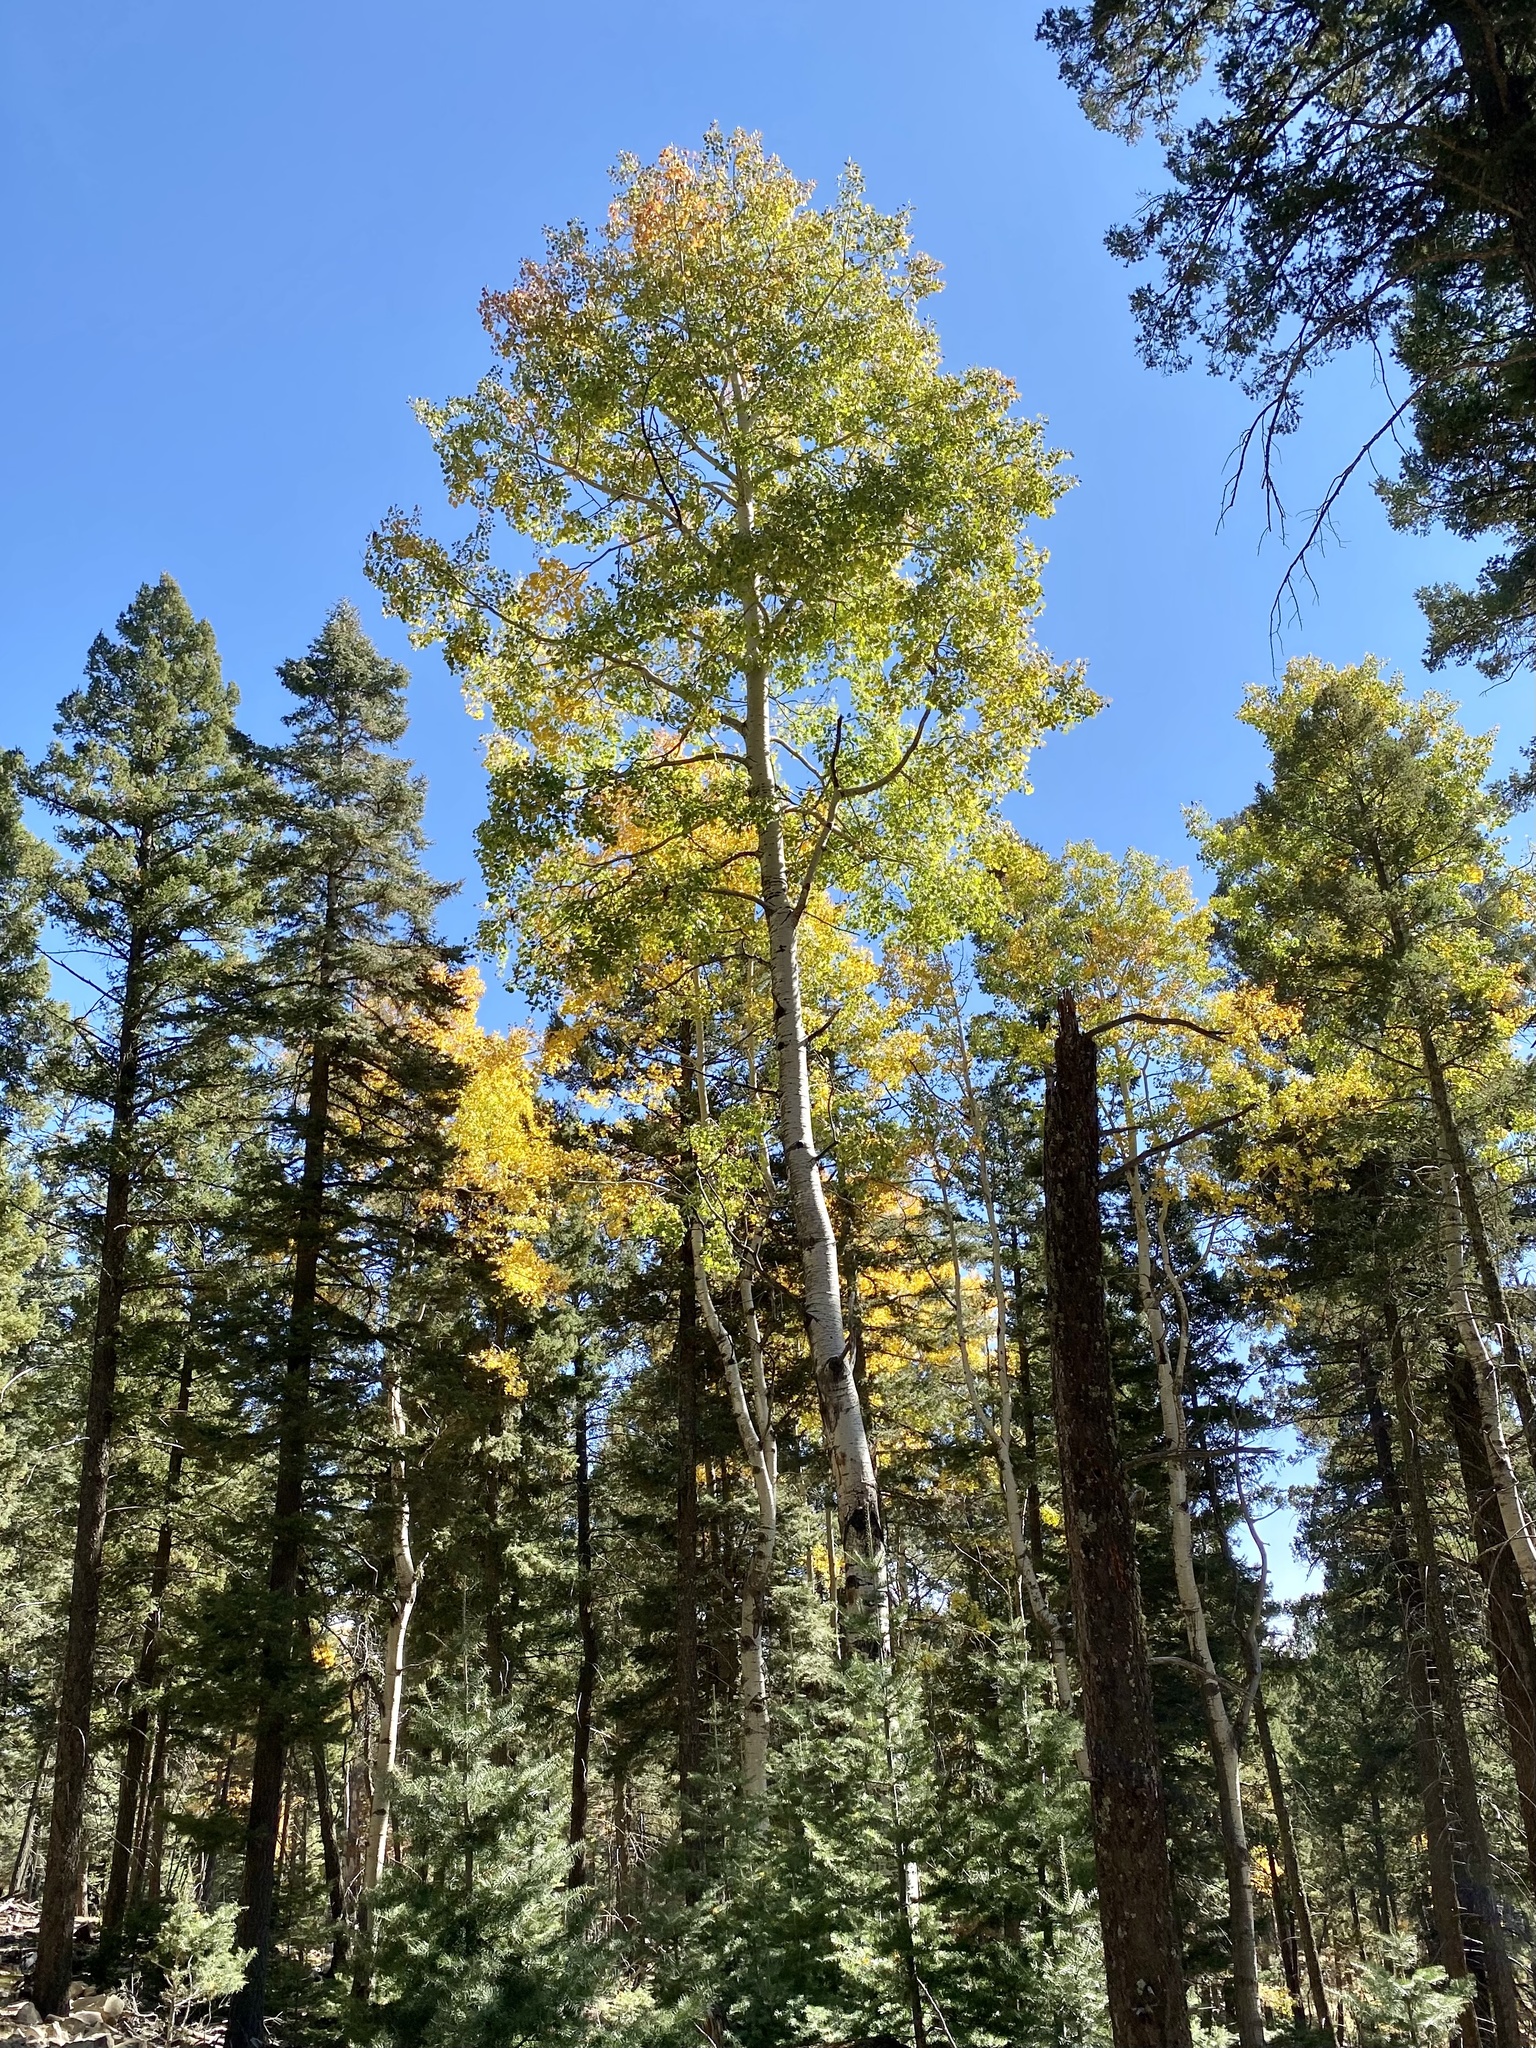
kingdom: Plantae
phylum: Tracheophyta
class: Magnoliopsida
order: Malpighiales
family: Salicaceae
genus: Populus
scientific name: Populus tremuloides
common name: Quaking aspen
